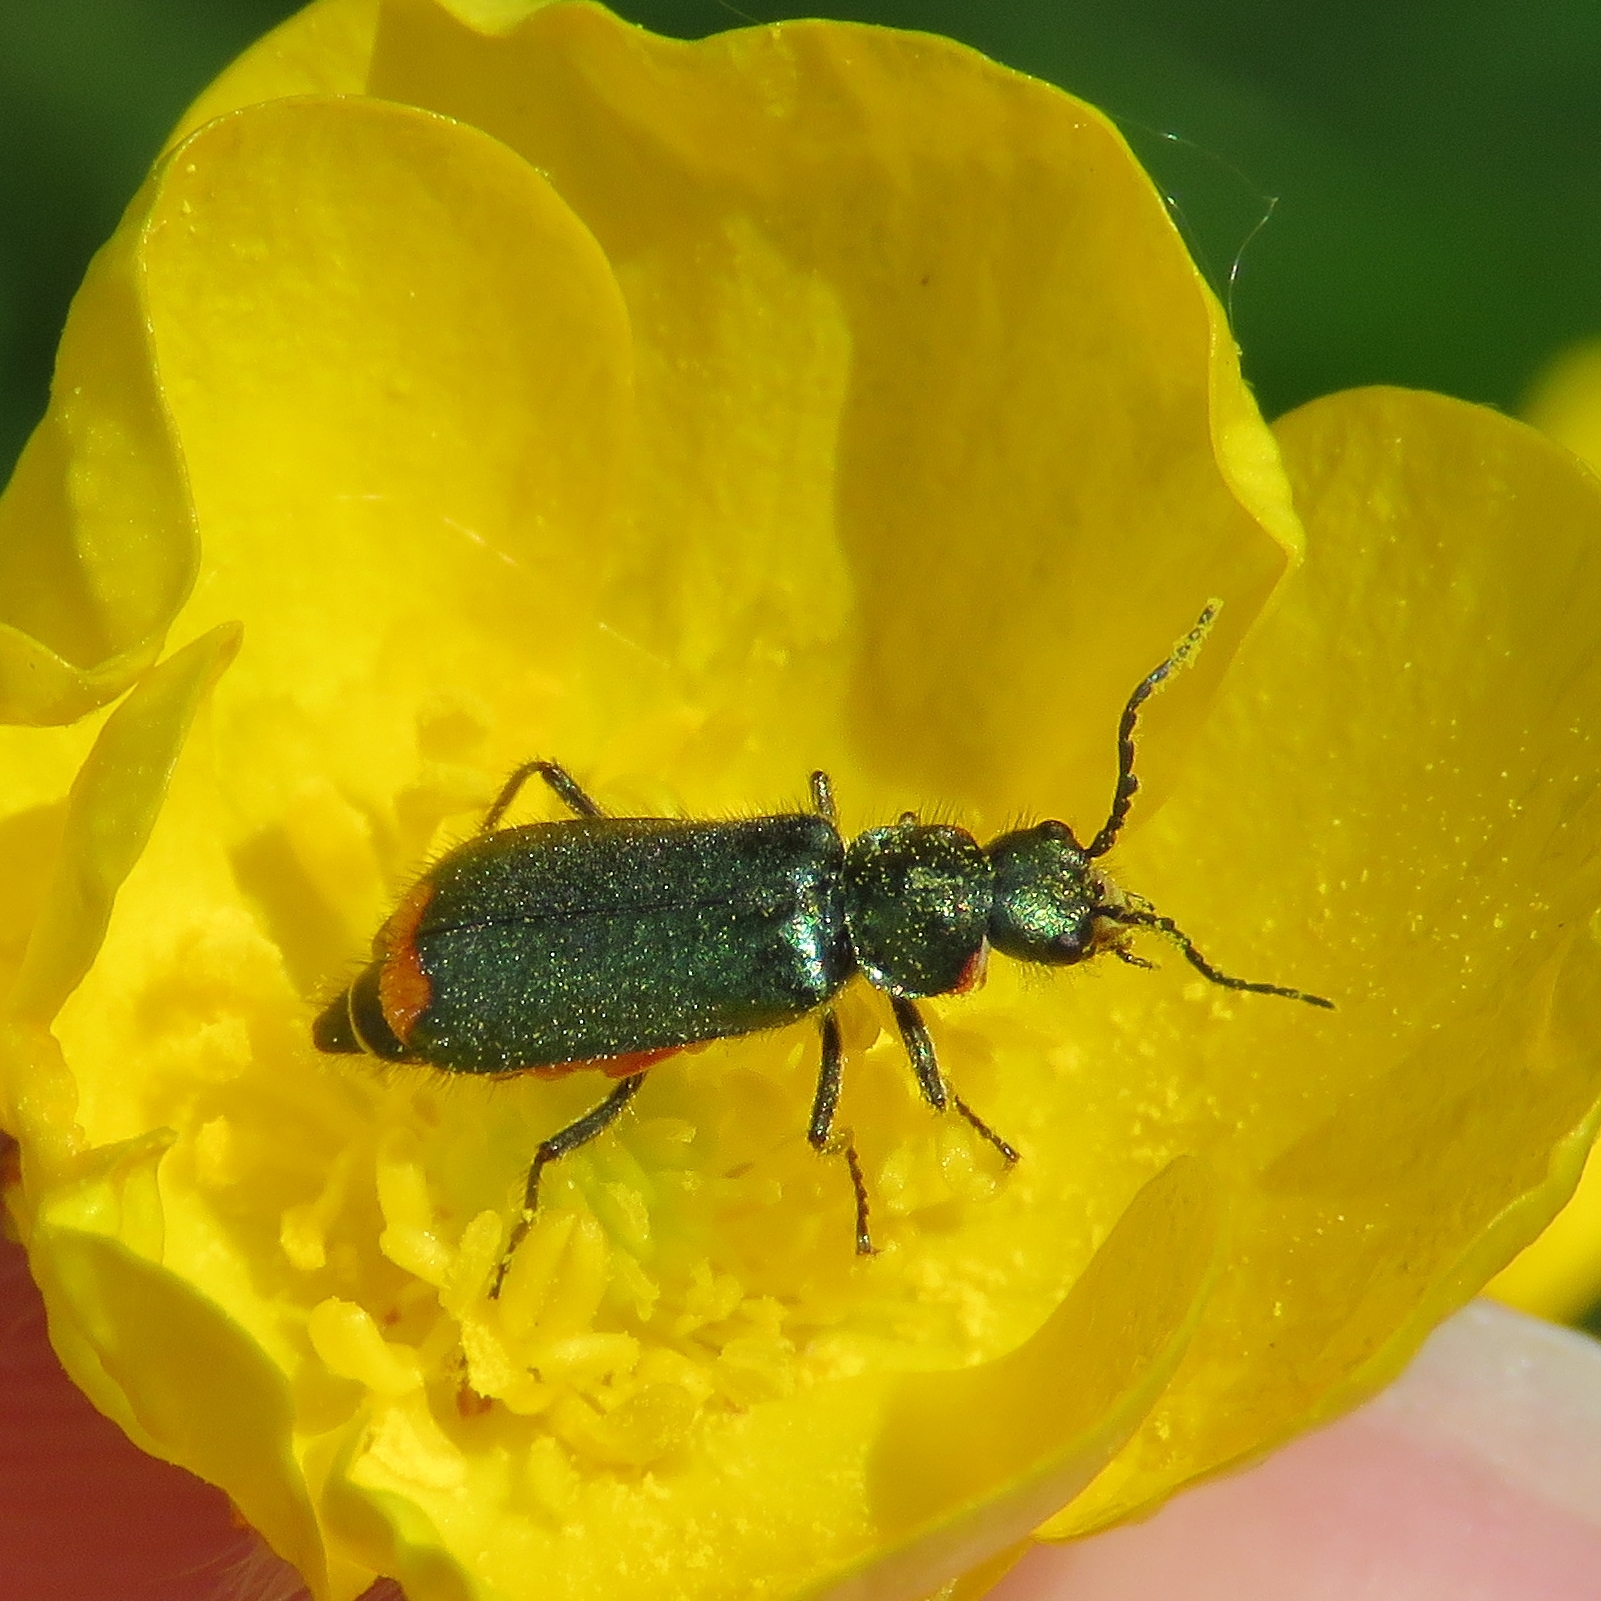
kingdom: Animalia
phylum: Arthropoda
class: Insecta
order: Coleoptera
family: Melyridae
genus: Malachius
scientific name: Malachius bipustulatus
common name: Malachite beetle
